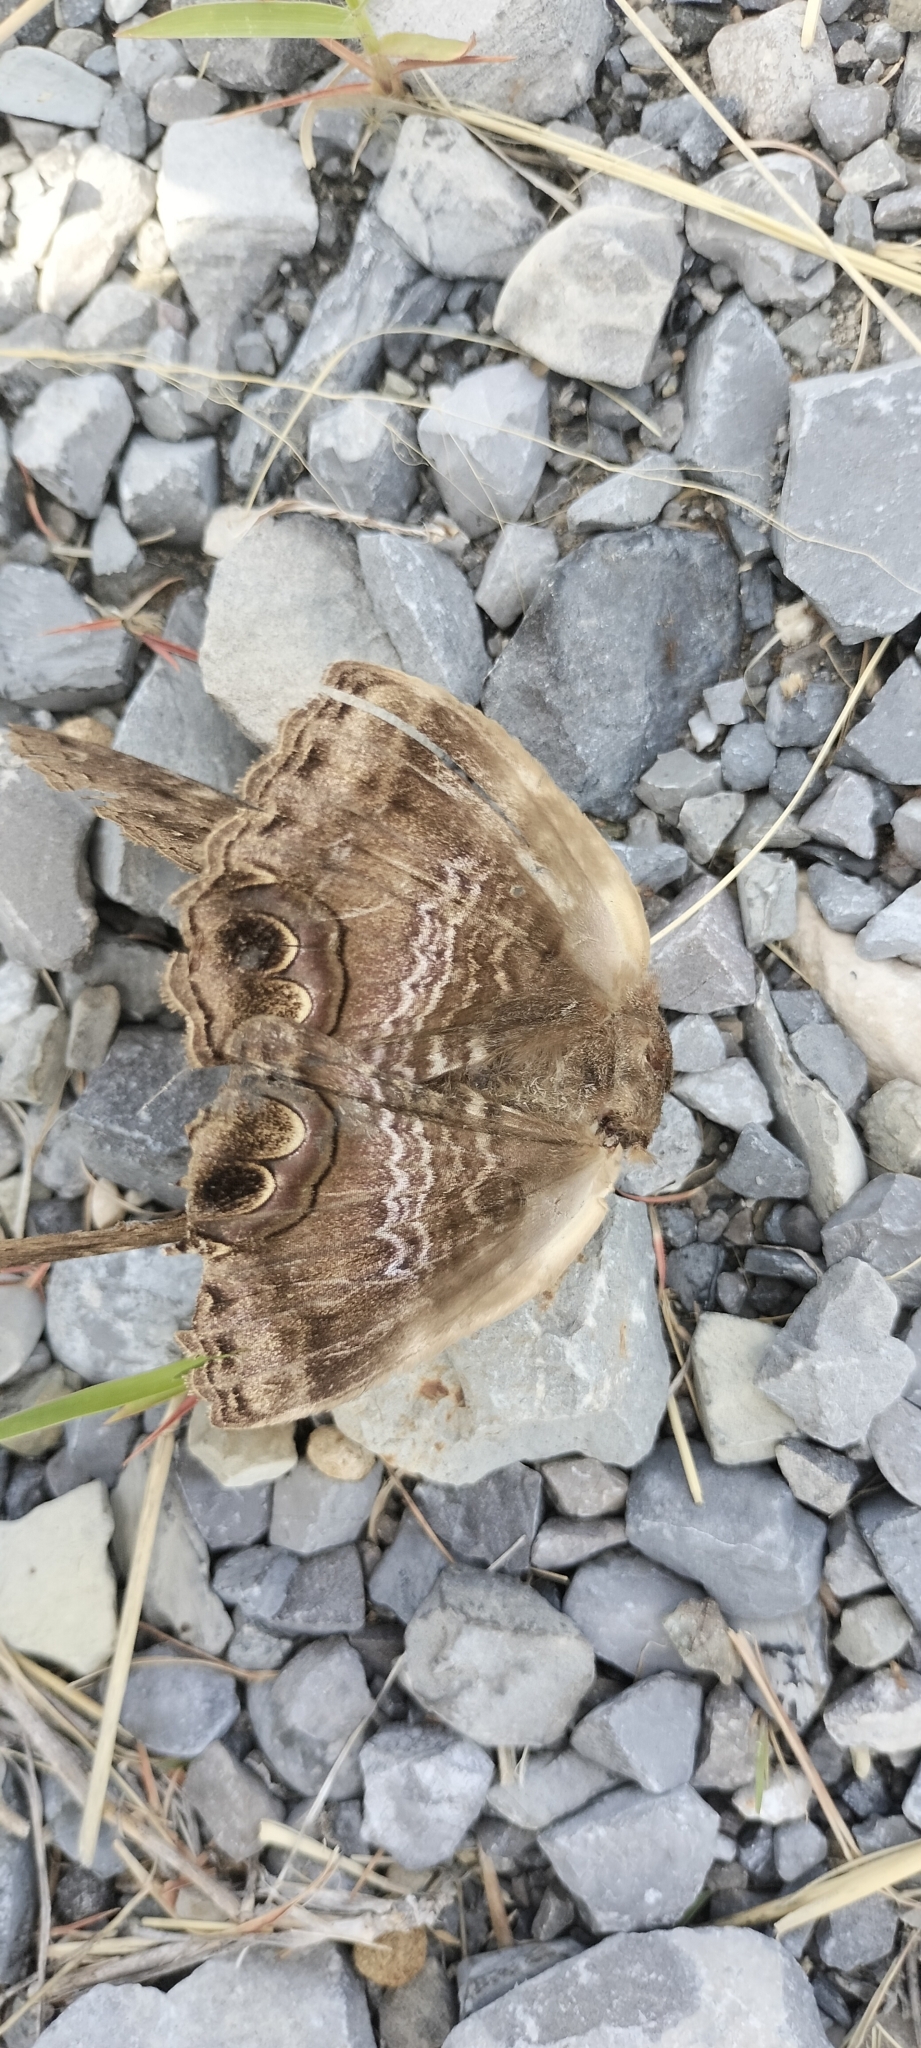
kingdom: Animalia
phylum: Arthropoda
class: Insecta
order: Lepidoptera
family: Erebidae
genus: Ascalapha
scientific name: Ascalapha odorata
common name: Black witch
